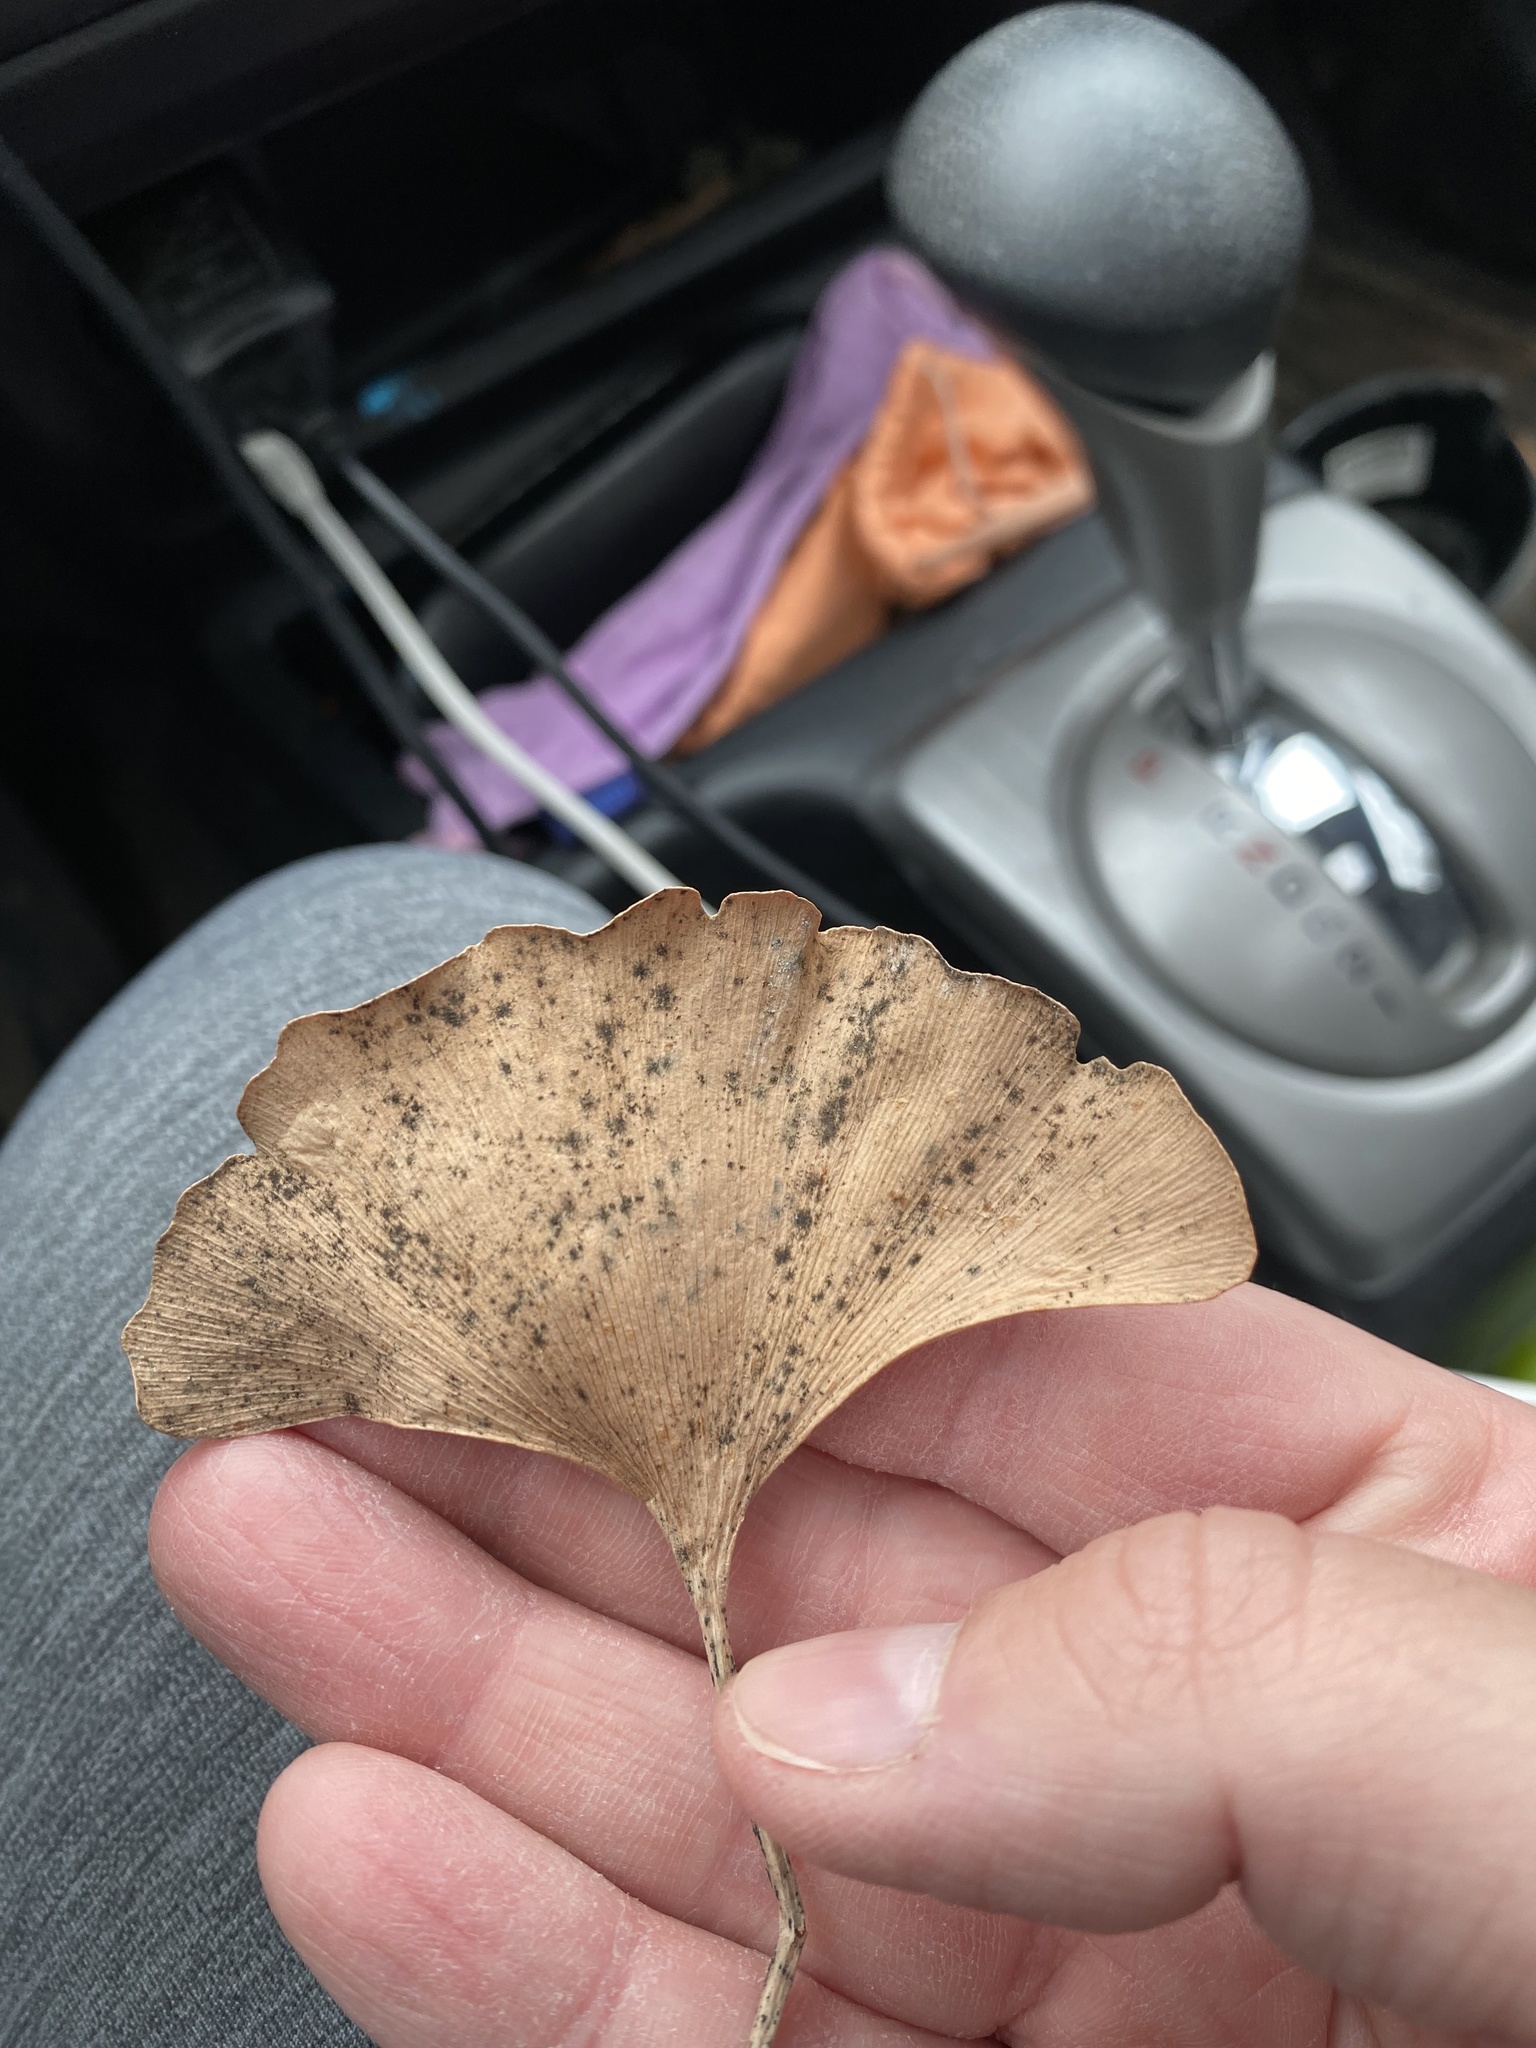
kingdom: Fungi
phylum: Basidiomycota
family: Bartheletiaceae
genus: Bartheletia
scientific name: Bartheletia paradoxa
